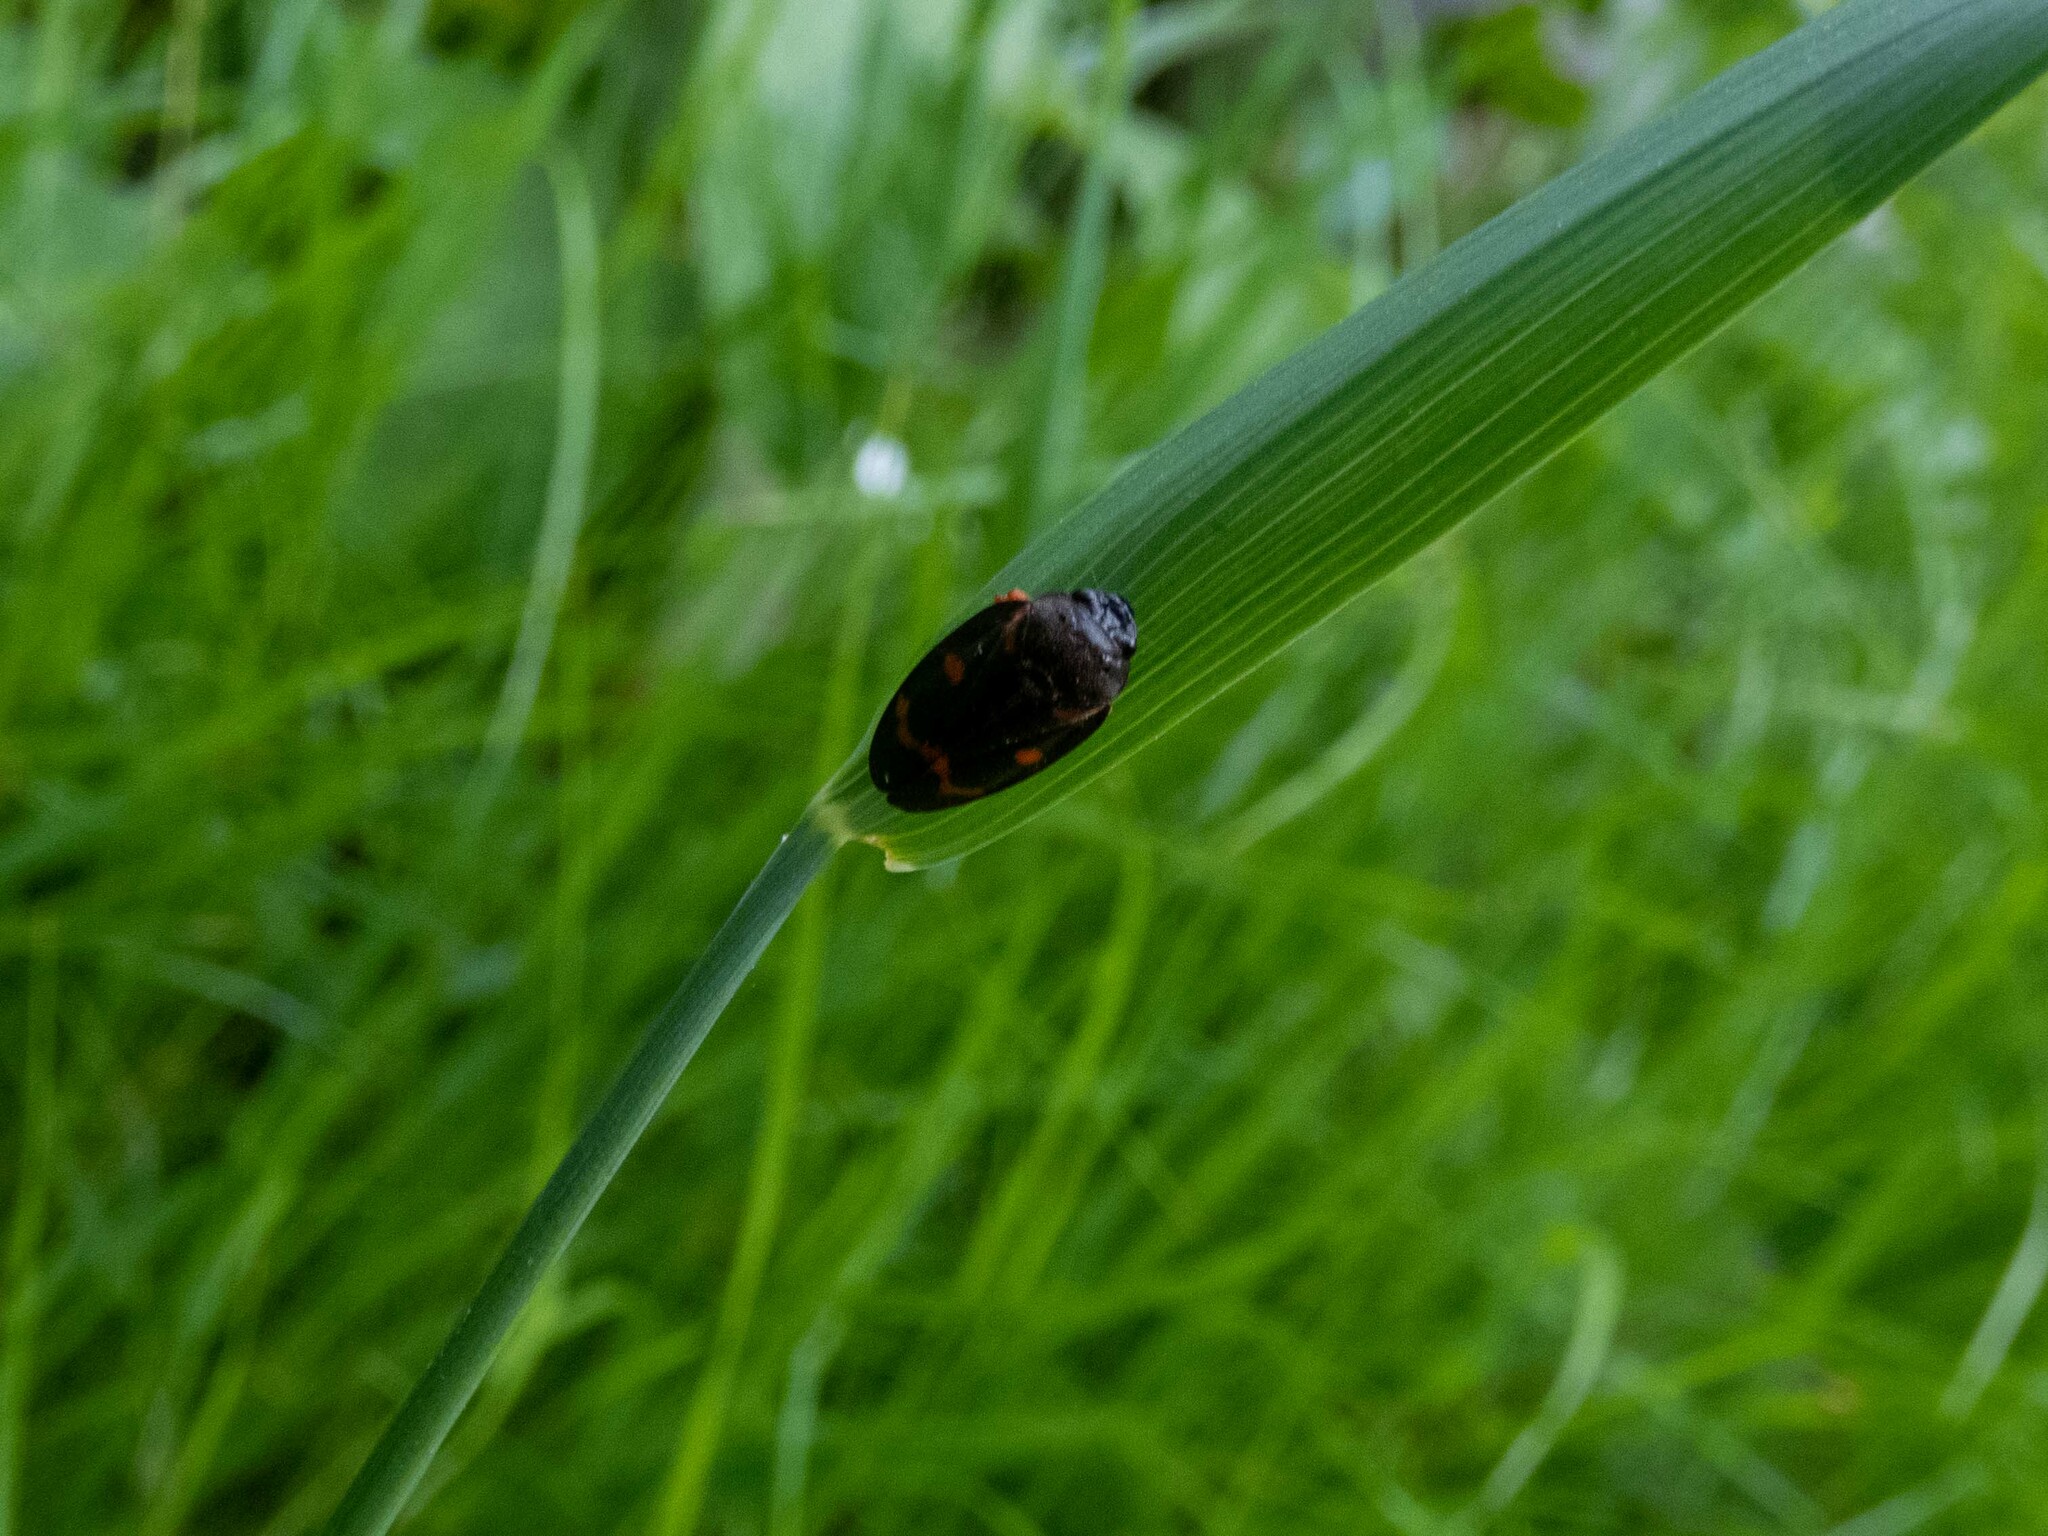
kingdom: Animalia
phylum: Arthropoda
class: Insecta
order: Hemiptera
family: Cercopidae
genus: Cercopis
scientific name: Cercopis intermedia
